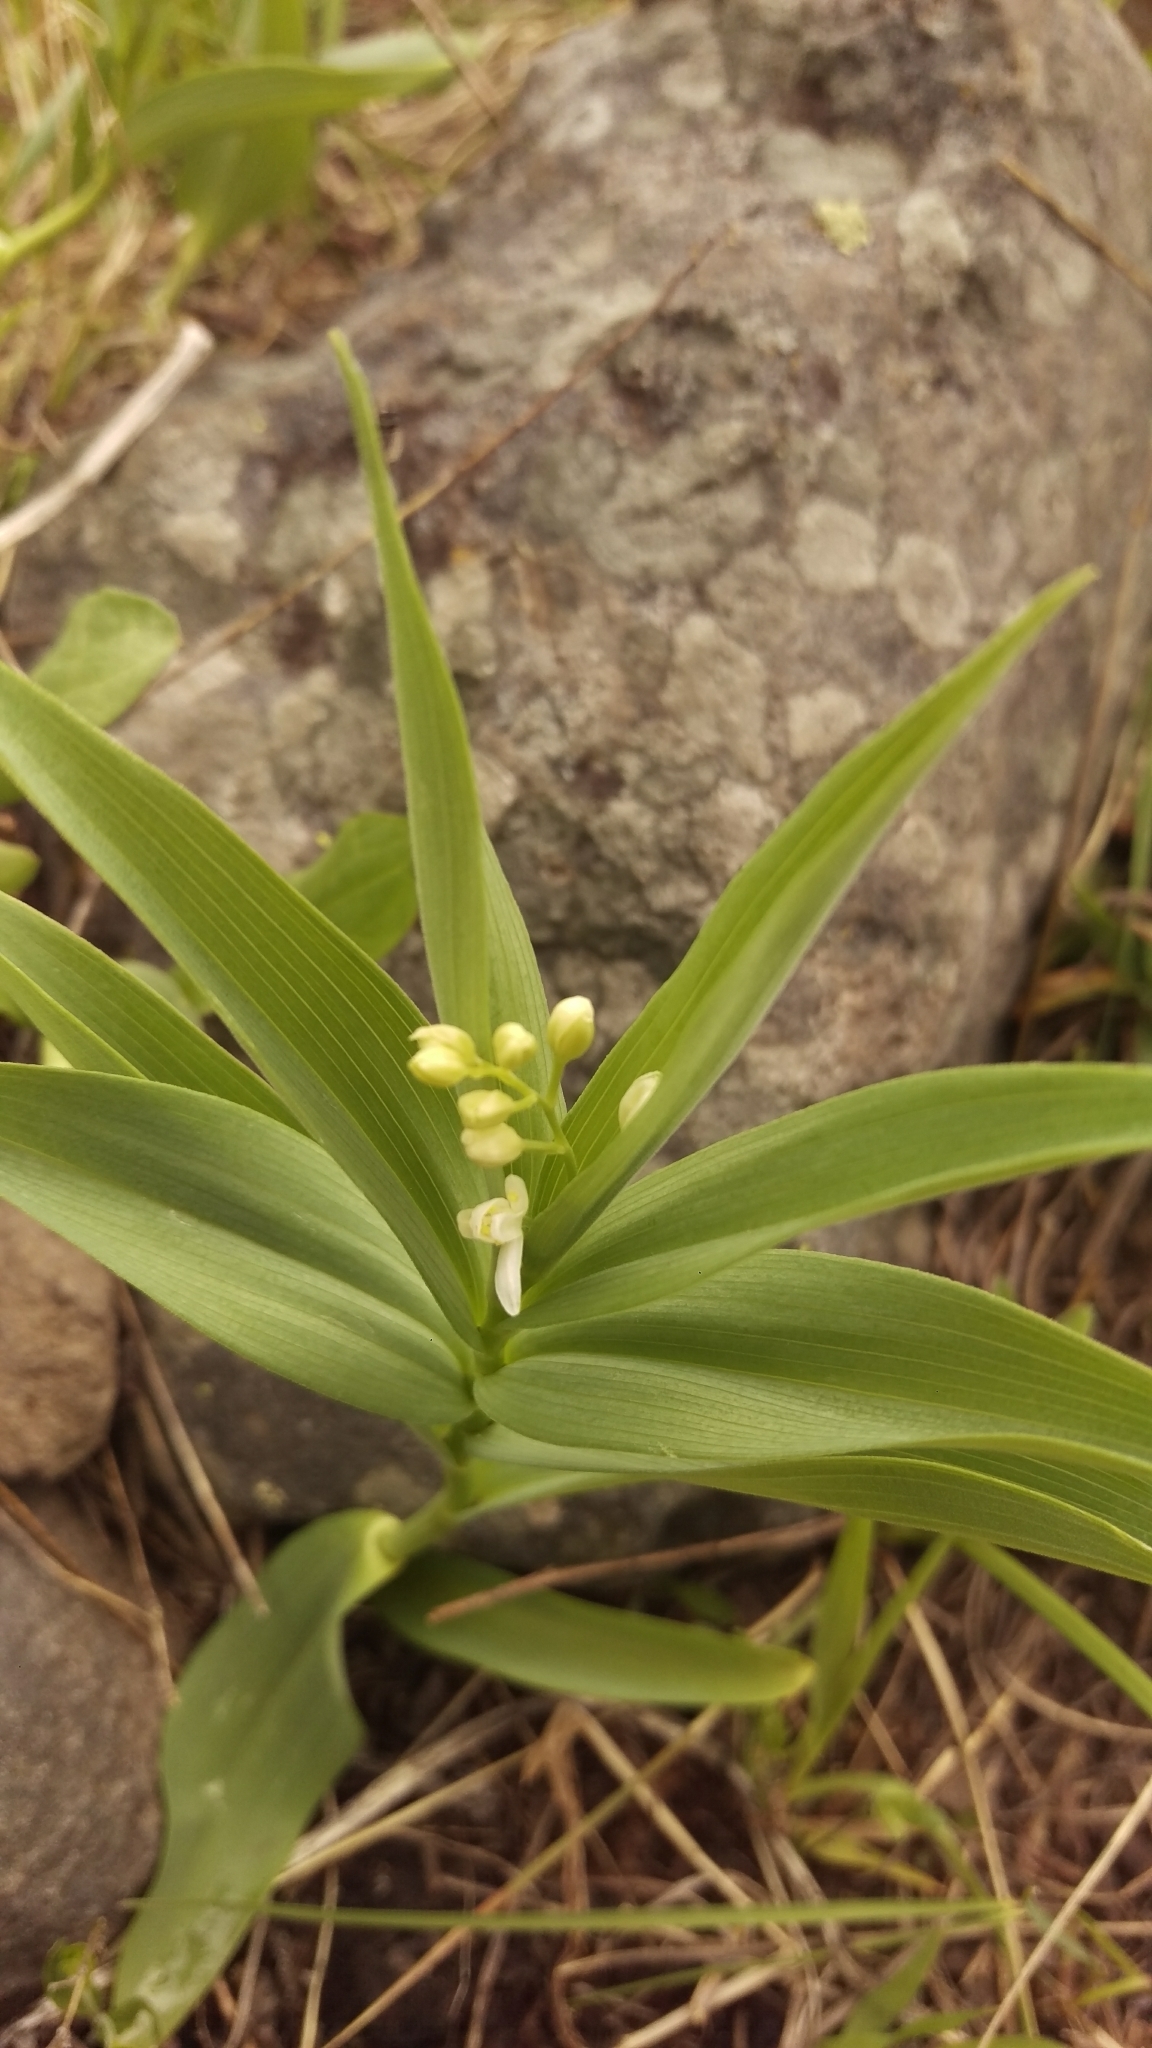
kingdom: Plantae
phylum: Tracheophyta
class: Liliopsida
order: Asparagales
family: Asparagaceae
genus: Maianthemum
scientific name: Maianthemum stellatum
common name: Little false solomon's seal
